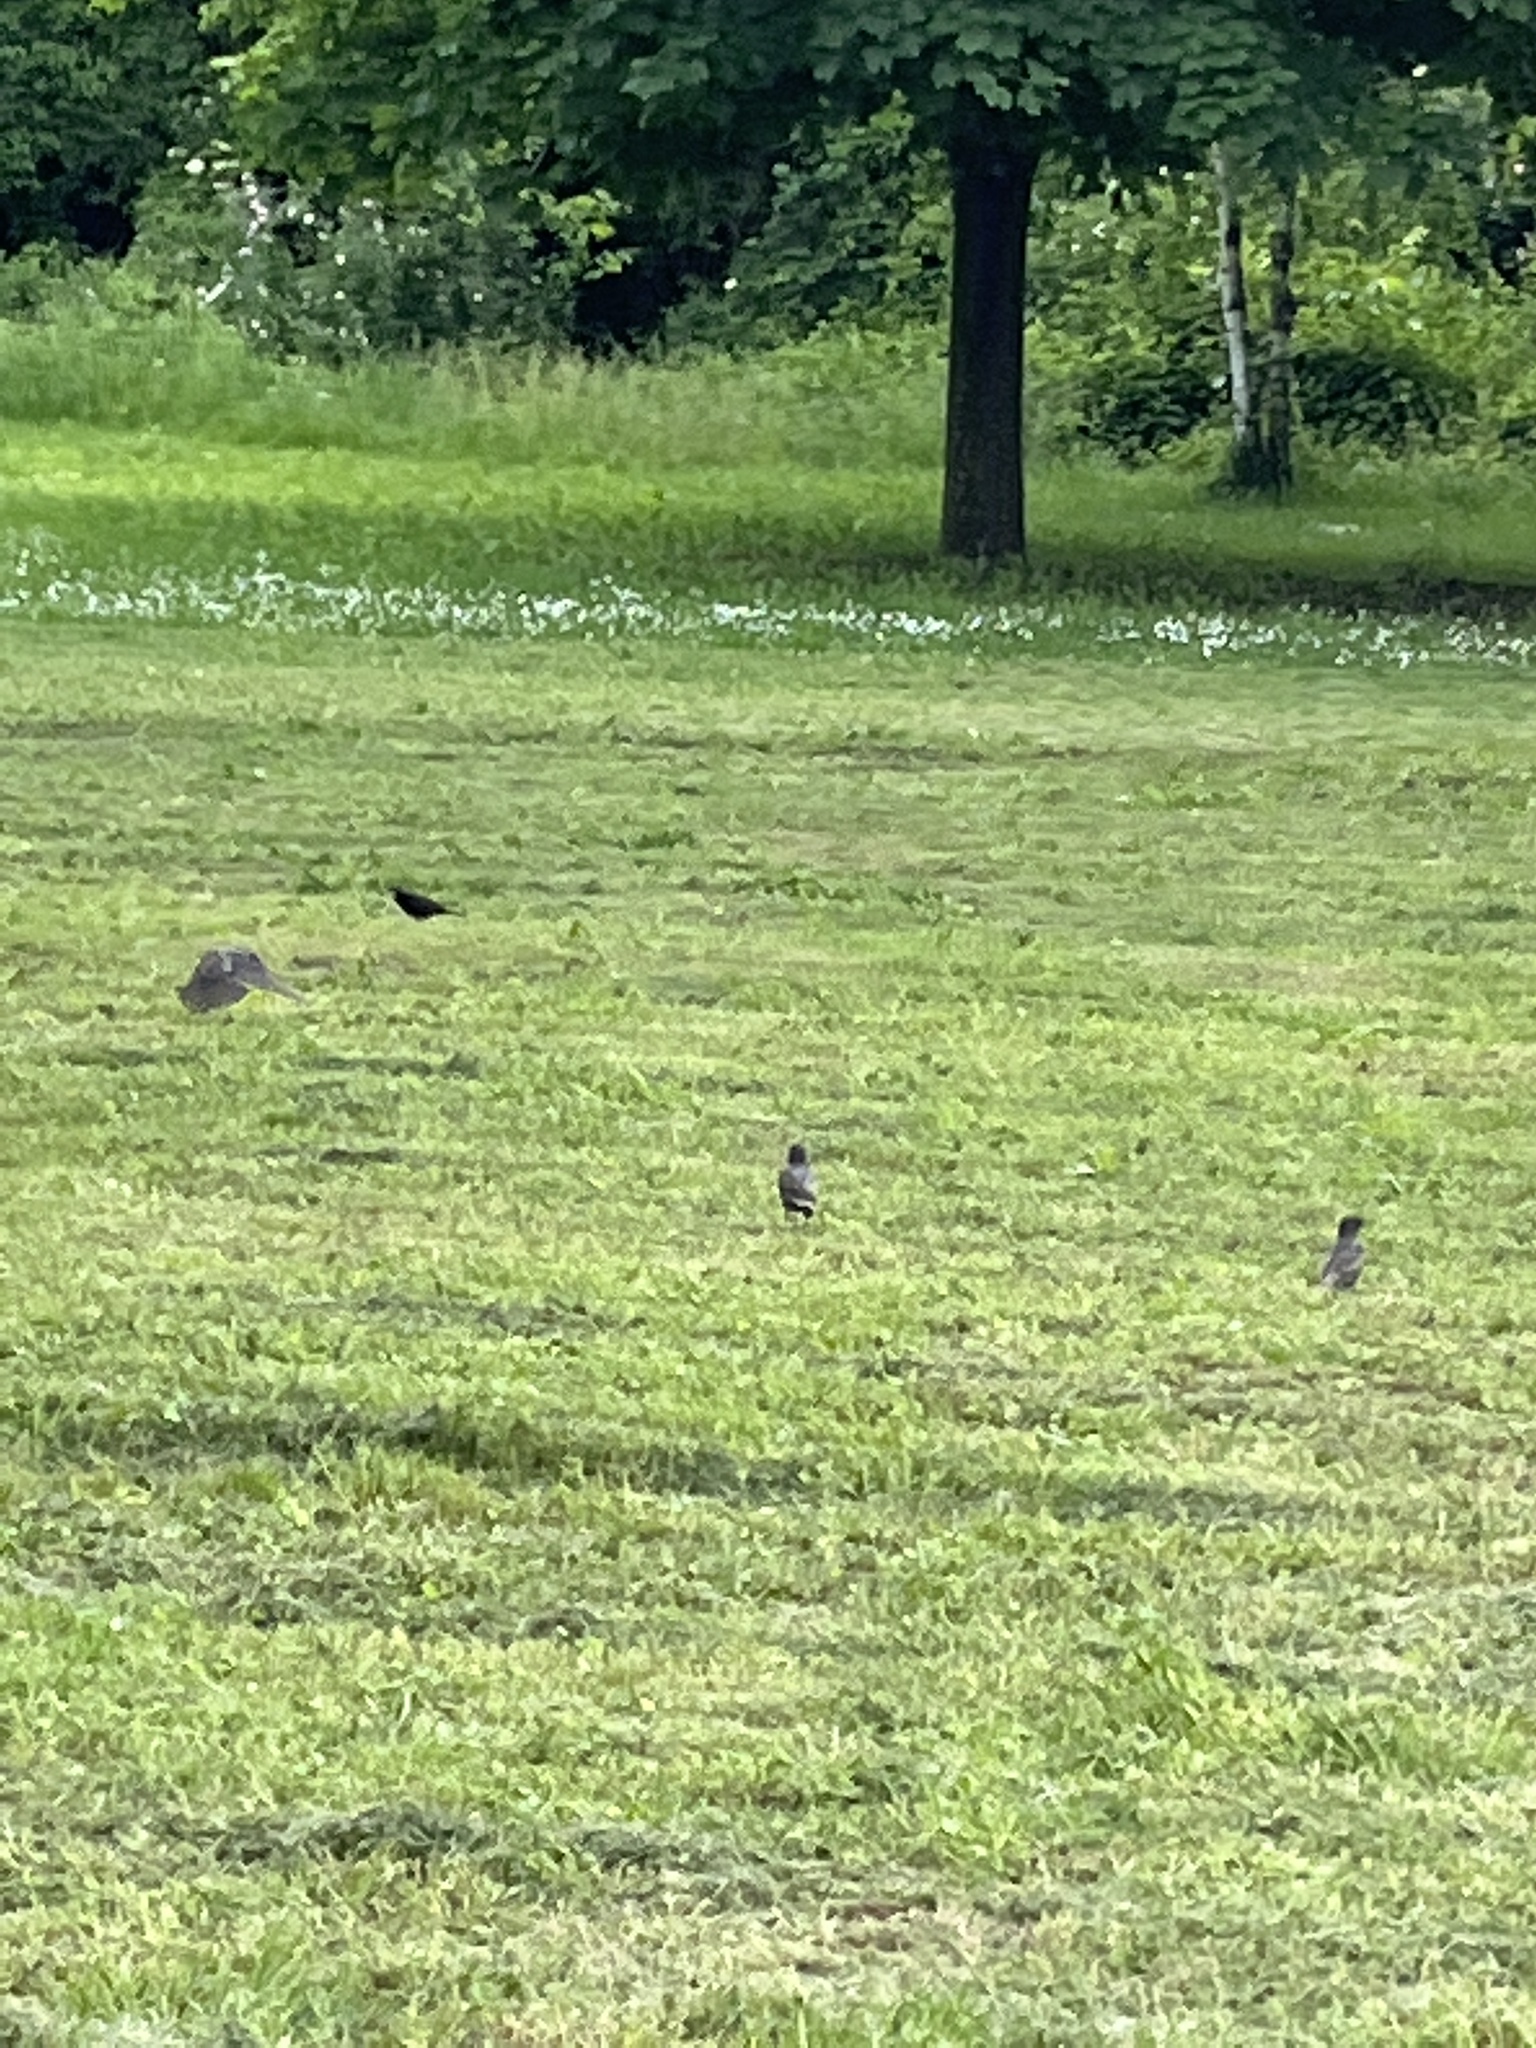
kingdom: Animalia
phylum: Chordata
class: Aves
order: Passeriformes
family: Sturnidae
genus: Sturnus
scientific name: Sturnus vulgaris
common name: Common starling
